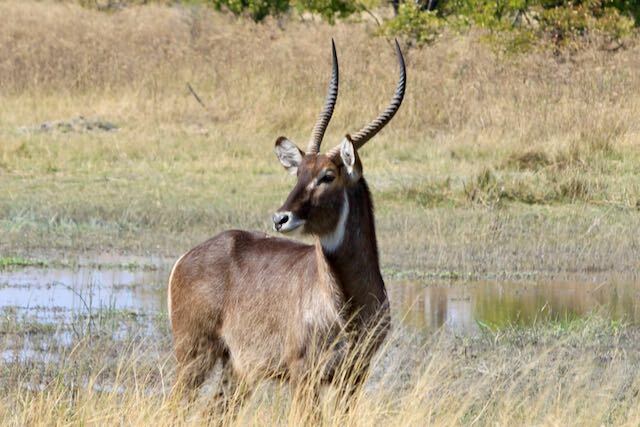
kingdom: Animalia
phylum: Chordata
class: Mammalia
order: Artiodactyla
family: Bovidae
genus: Kobus
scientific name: Kobus ellipsiprymnus
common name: Waterbuck
